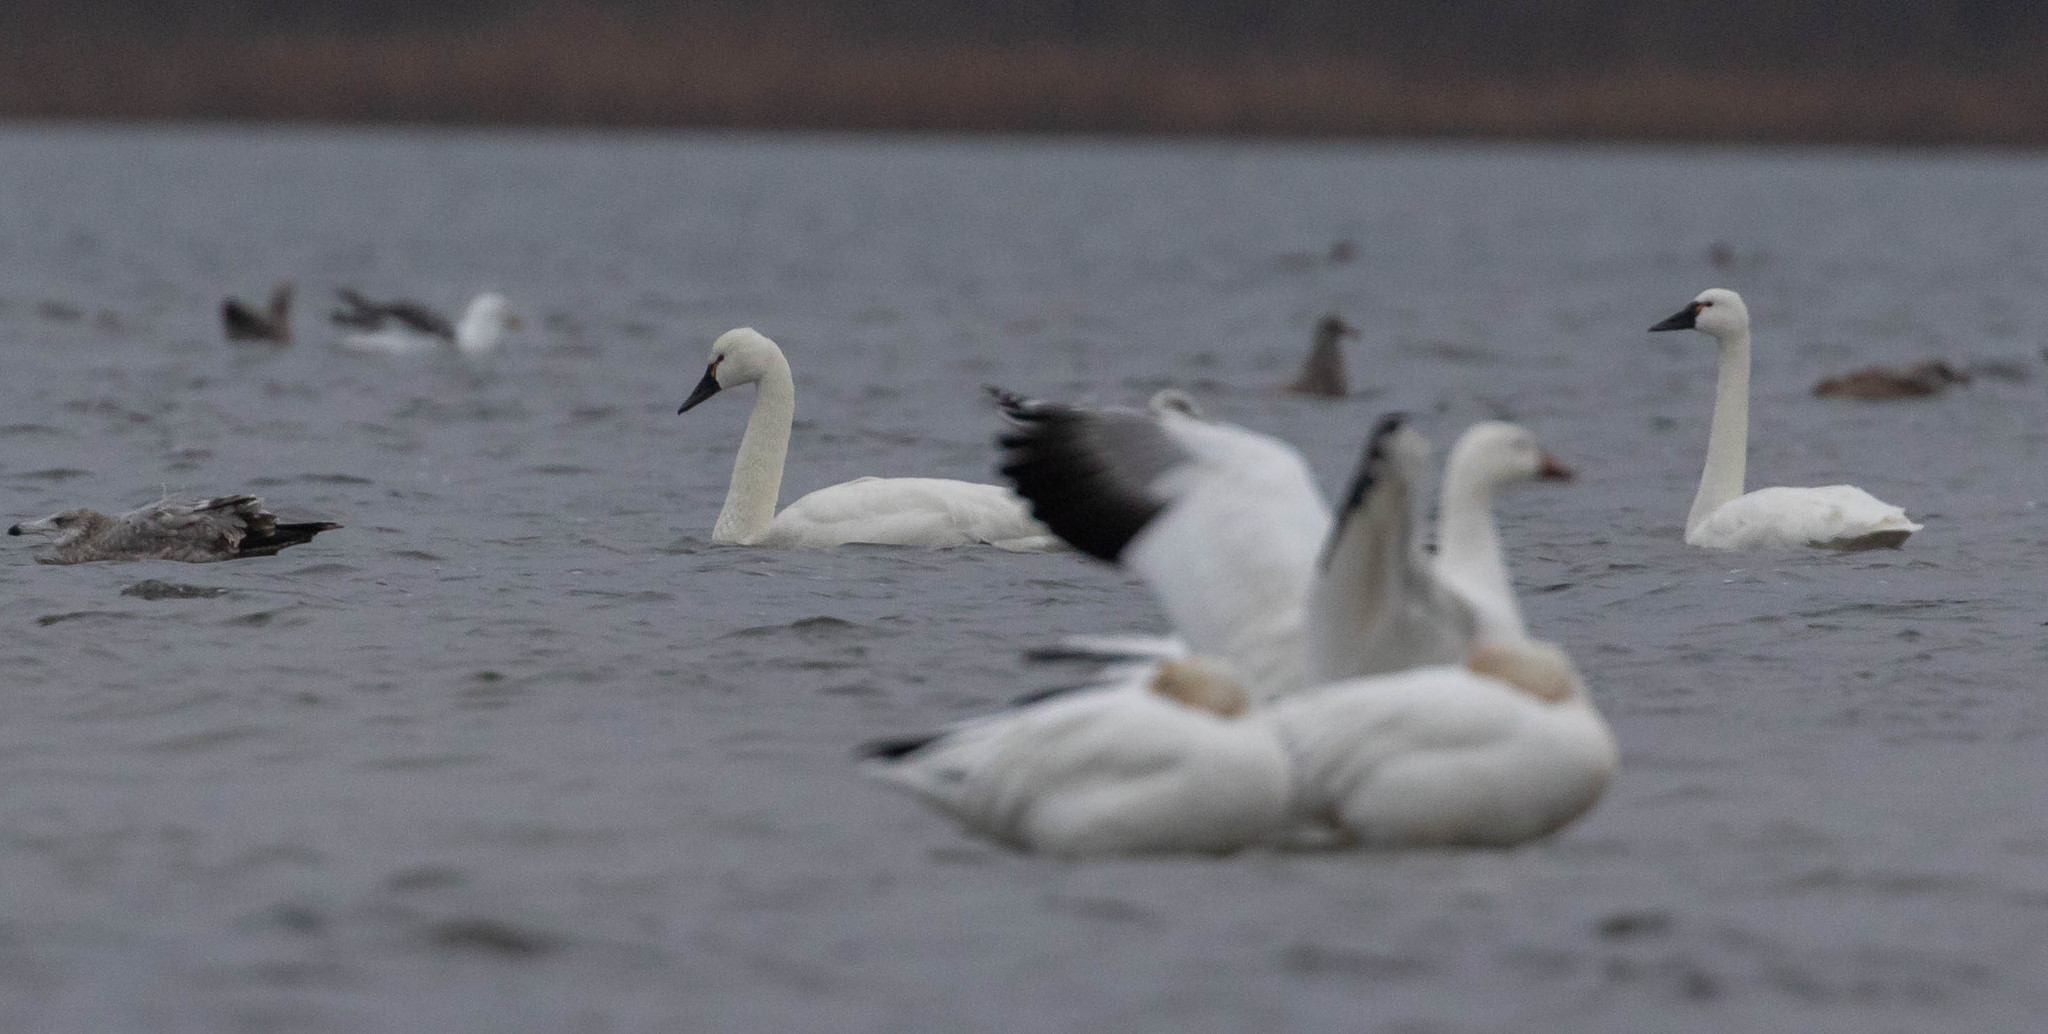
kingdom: Animalia
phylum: Chordata
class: Aves
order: Anseriformes
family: Anatidae
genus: Cygnus
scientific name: Cygnus columbianus
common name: Tundra swan
